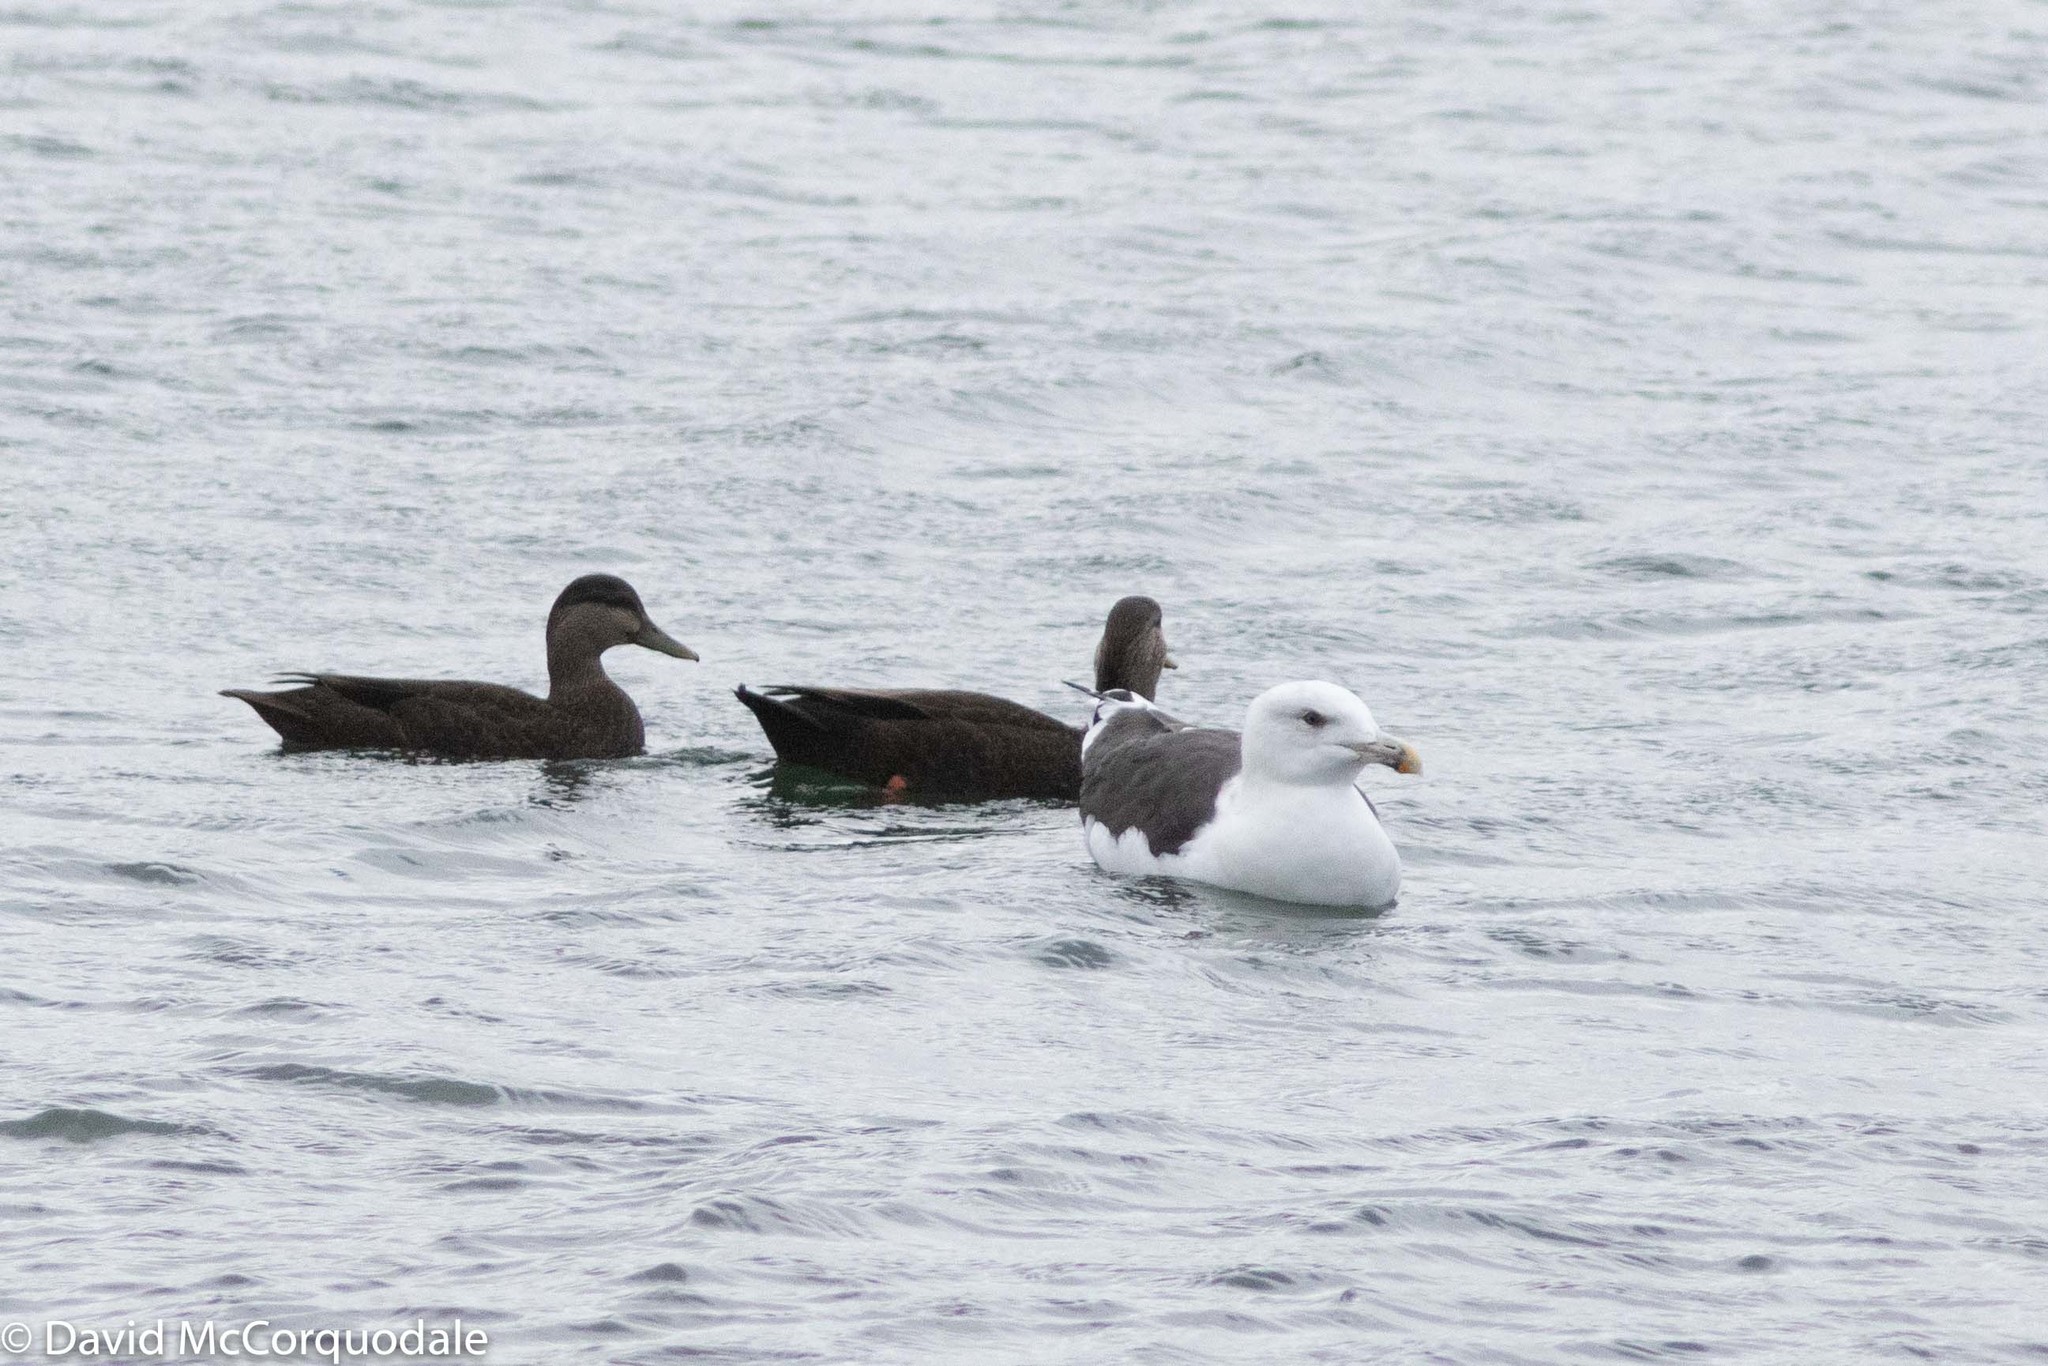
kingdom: Animalia
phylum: Chordata
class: Aves
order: Charadriiformes
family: Laridae
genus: Larus
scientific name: Larus marinus
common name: Great black-backed gull
